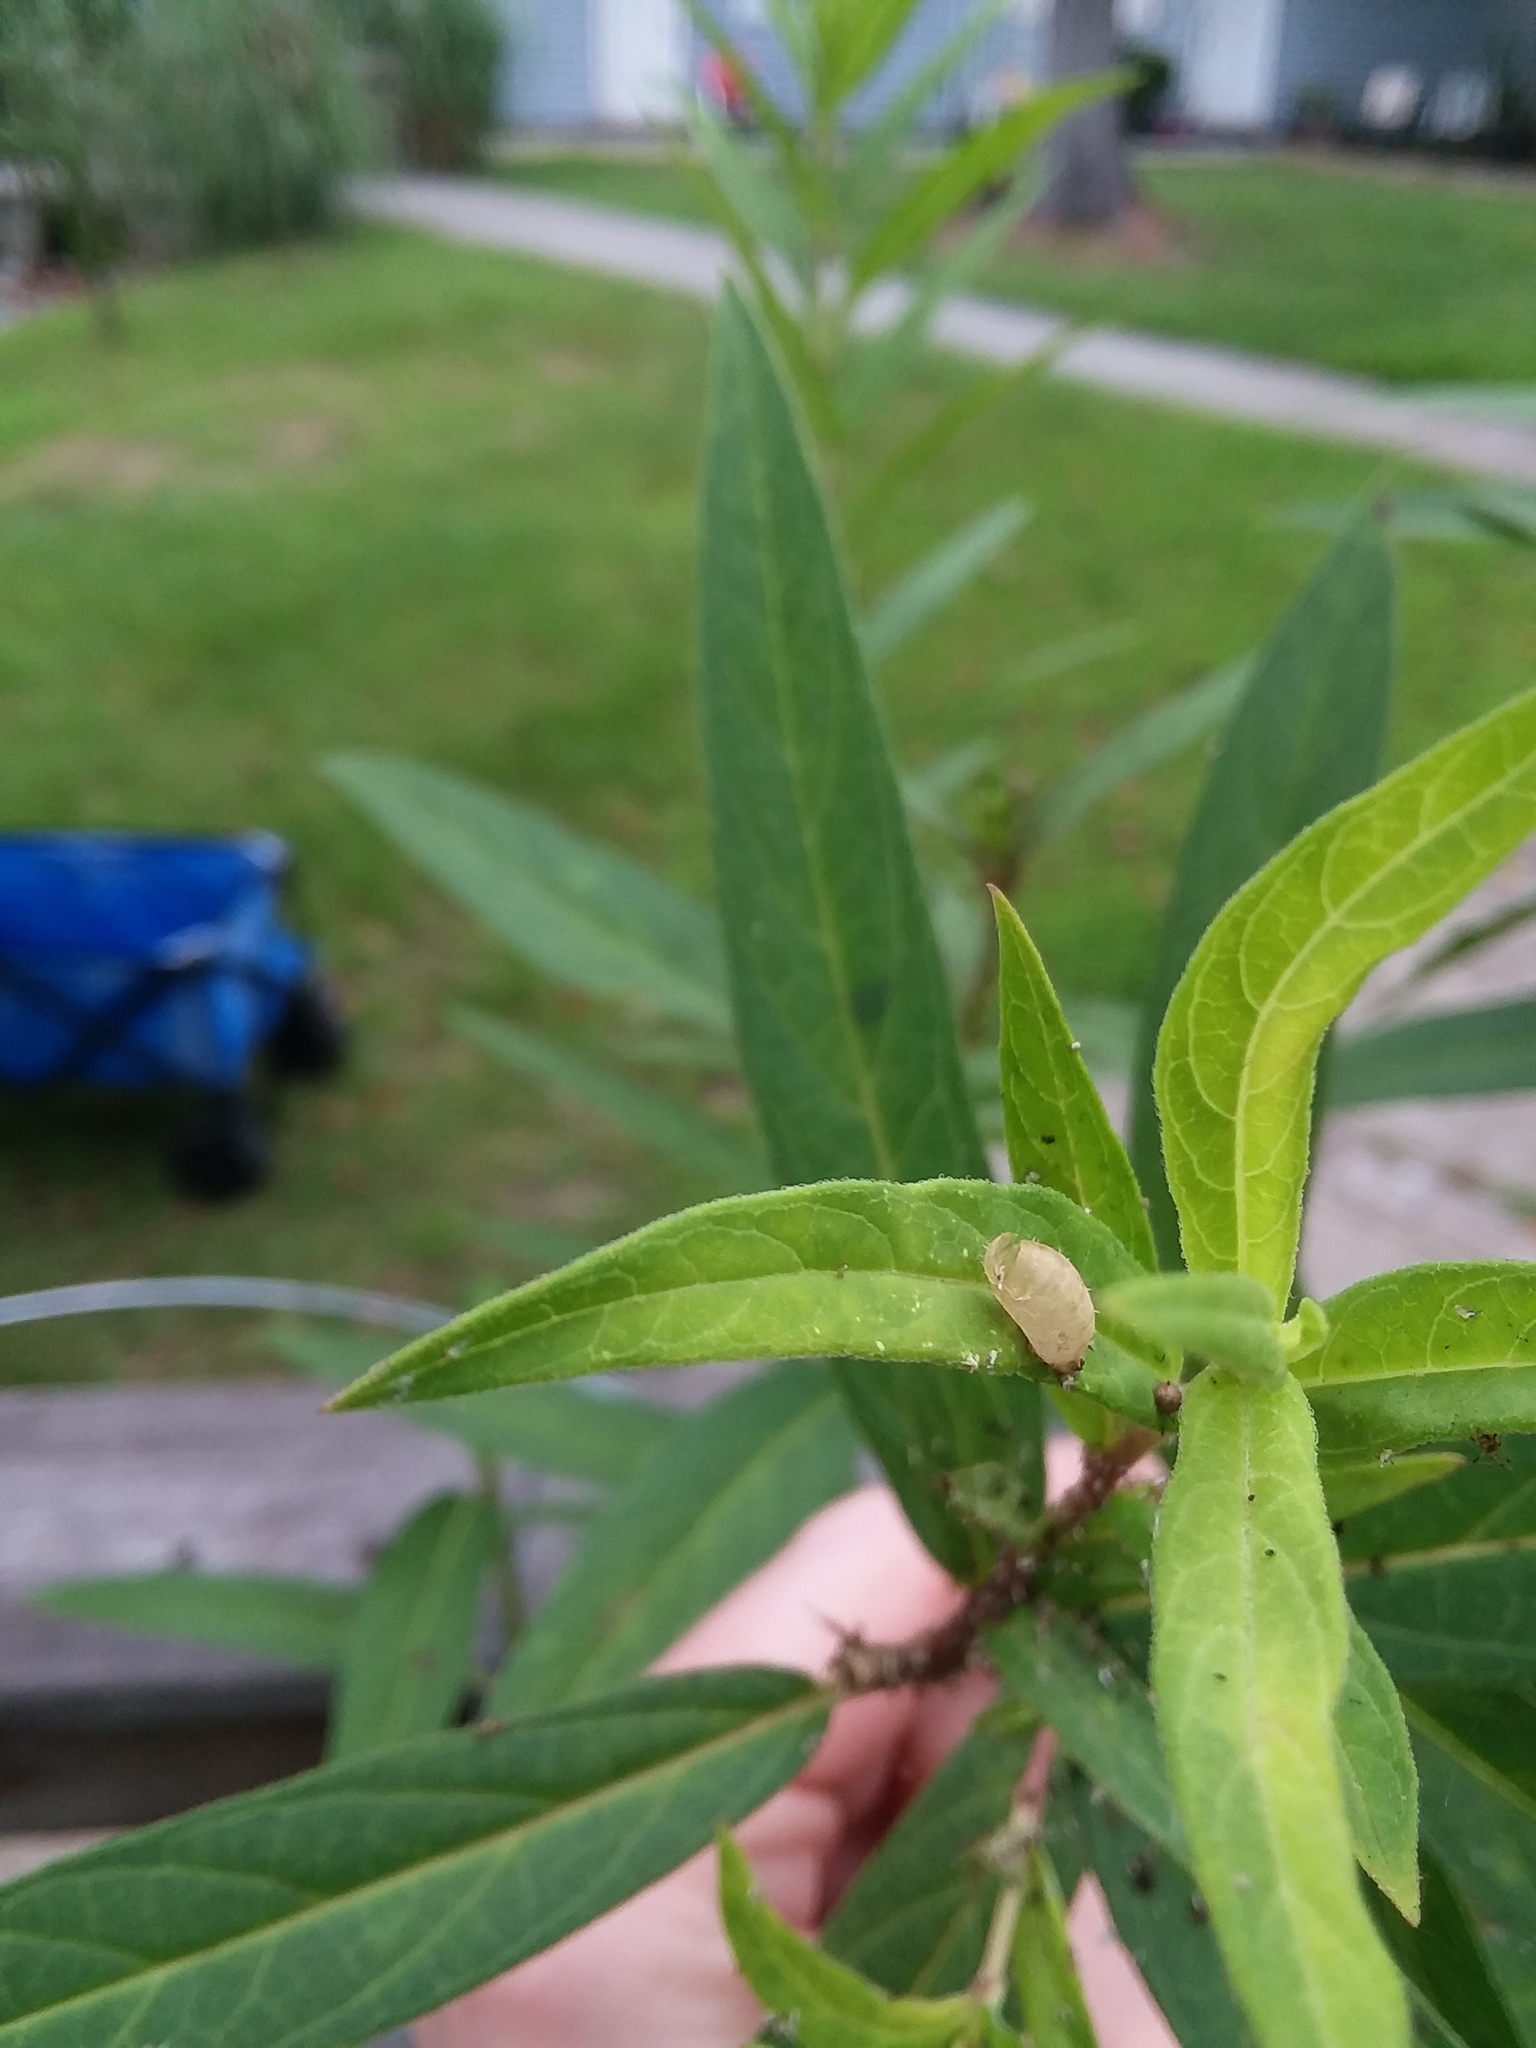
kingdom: Animalia
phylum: Arthropoda
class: Insecta
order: Diptera
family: Syrphidae
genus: Dioprosopa
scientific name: Dioprosopa clavatus
